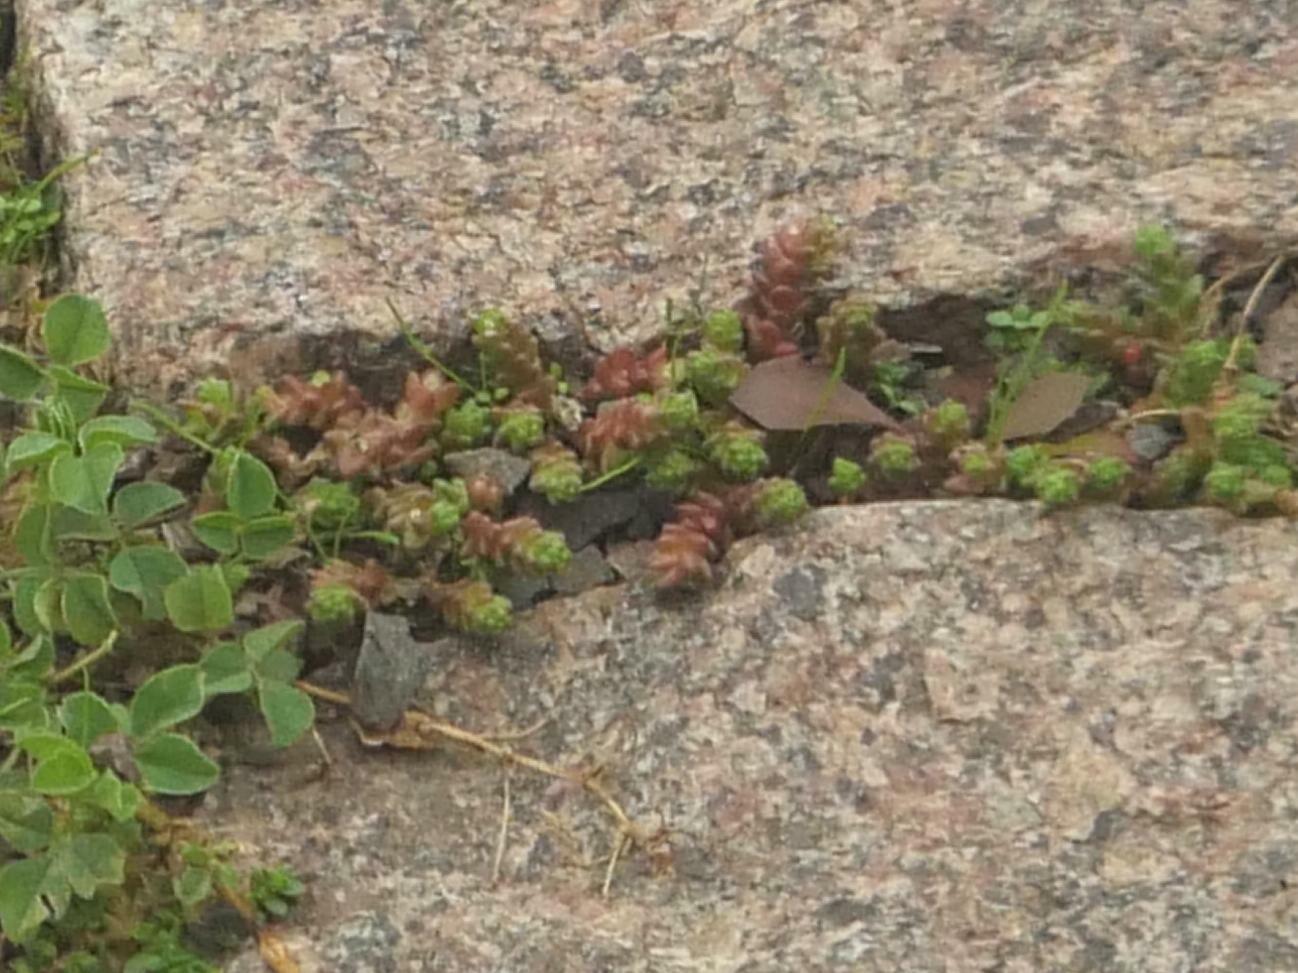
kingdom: Plantae
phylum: Tracheophyta
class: Magnoliopsida
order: Saxifragales
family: Crassulaceae
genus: Sedum
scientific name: Sedum acre
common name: Biting stonecrop
